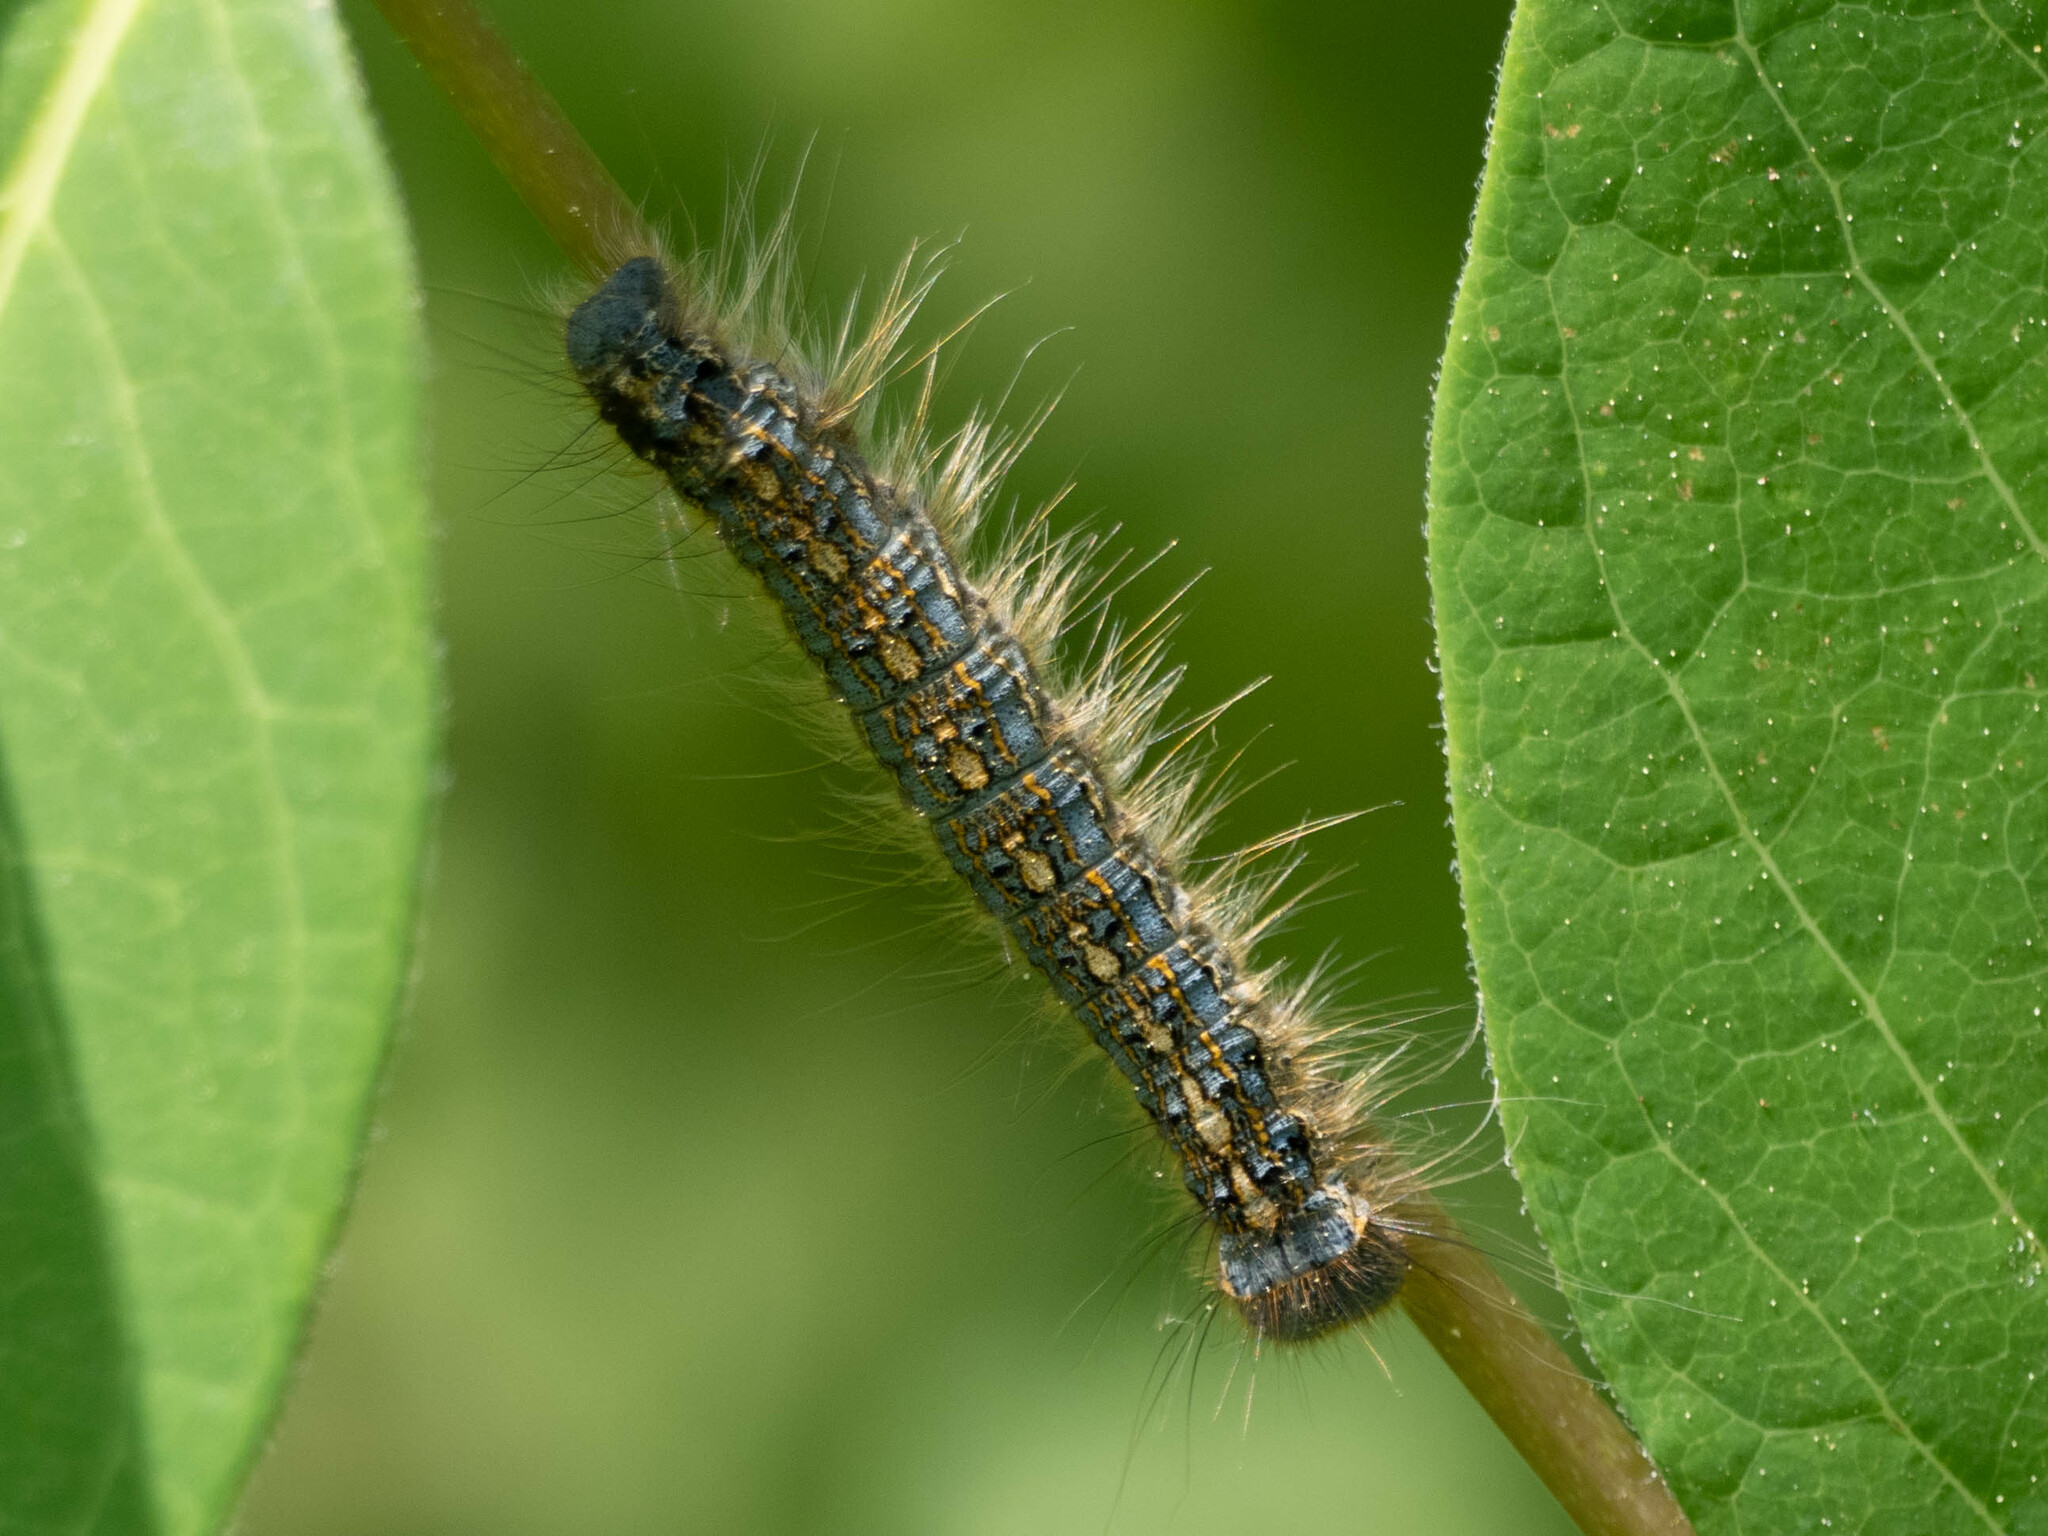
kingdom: Animalia
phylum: Arthropoda
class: Insecta
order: Lepidoptera
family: Lasiocampidae
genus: Malacosoma
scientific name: Malacosoma disstria
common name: Forest tent caterpillar
